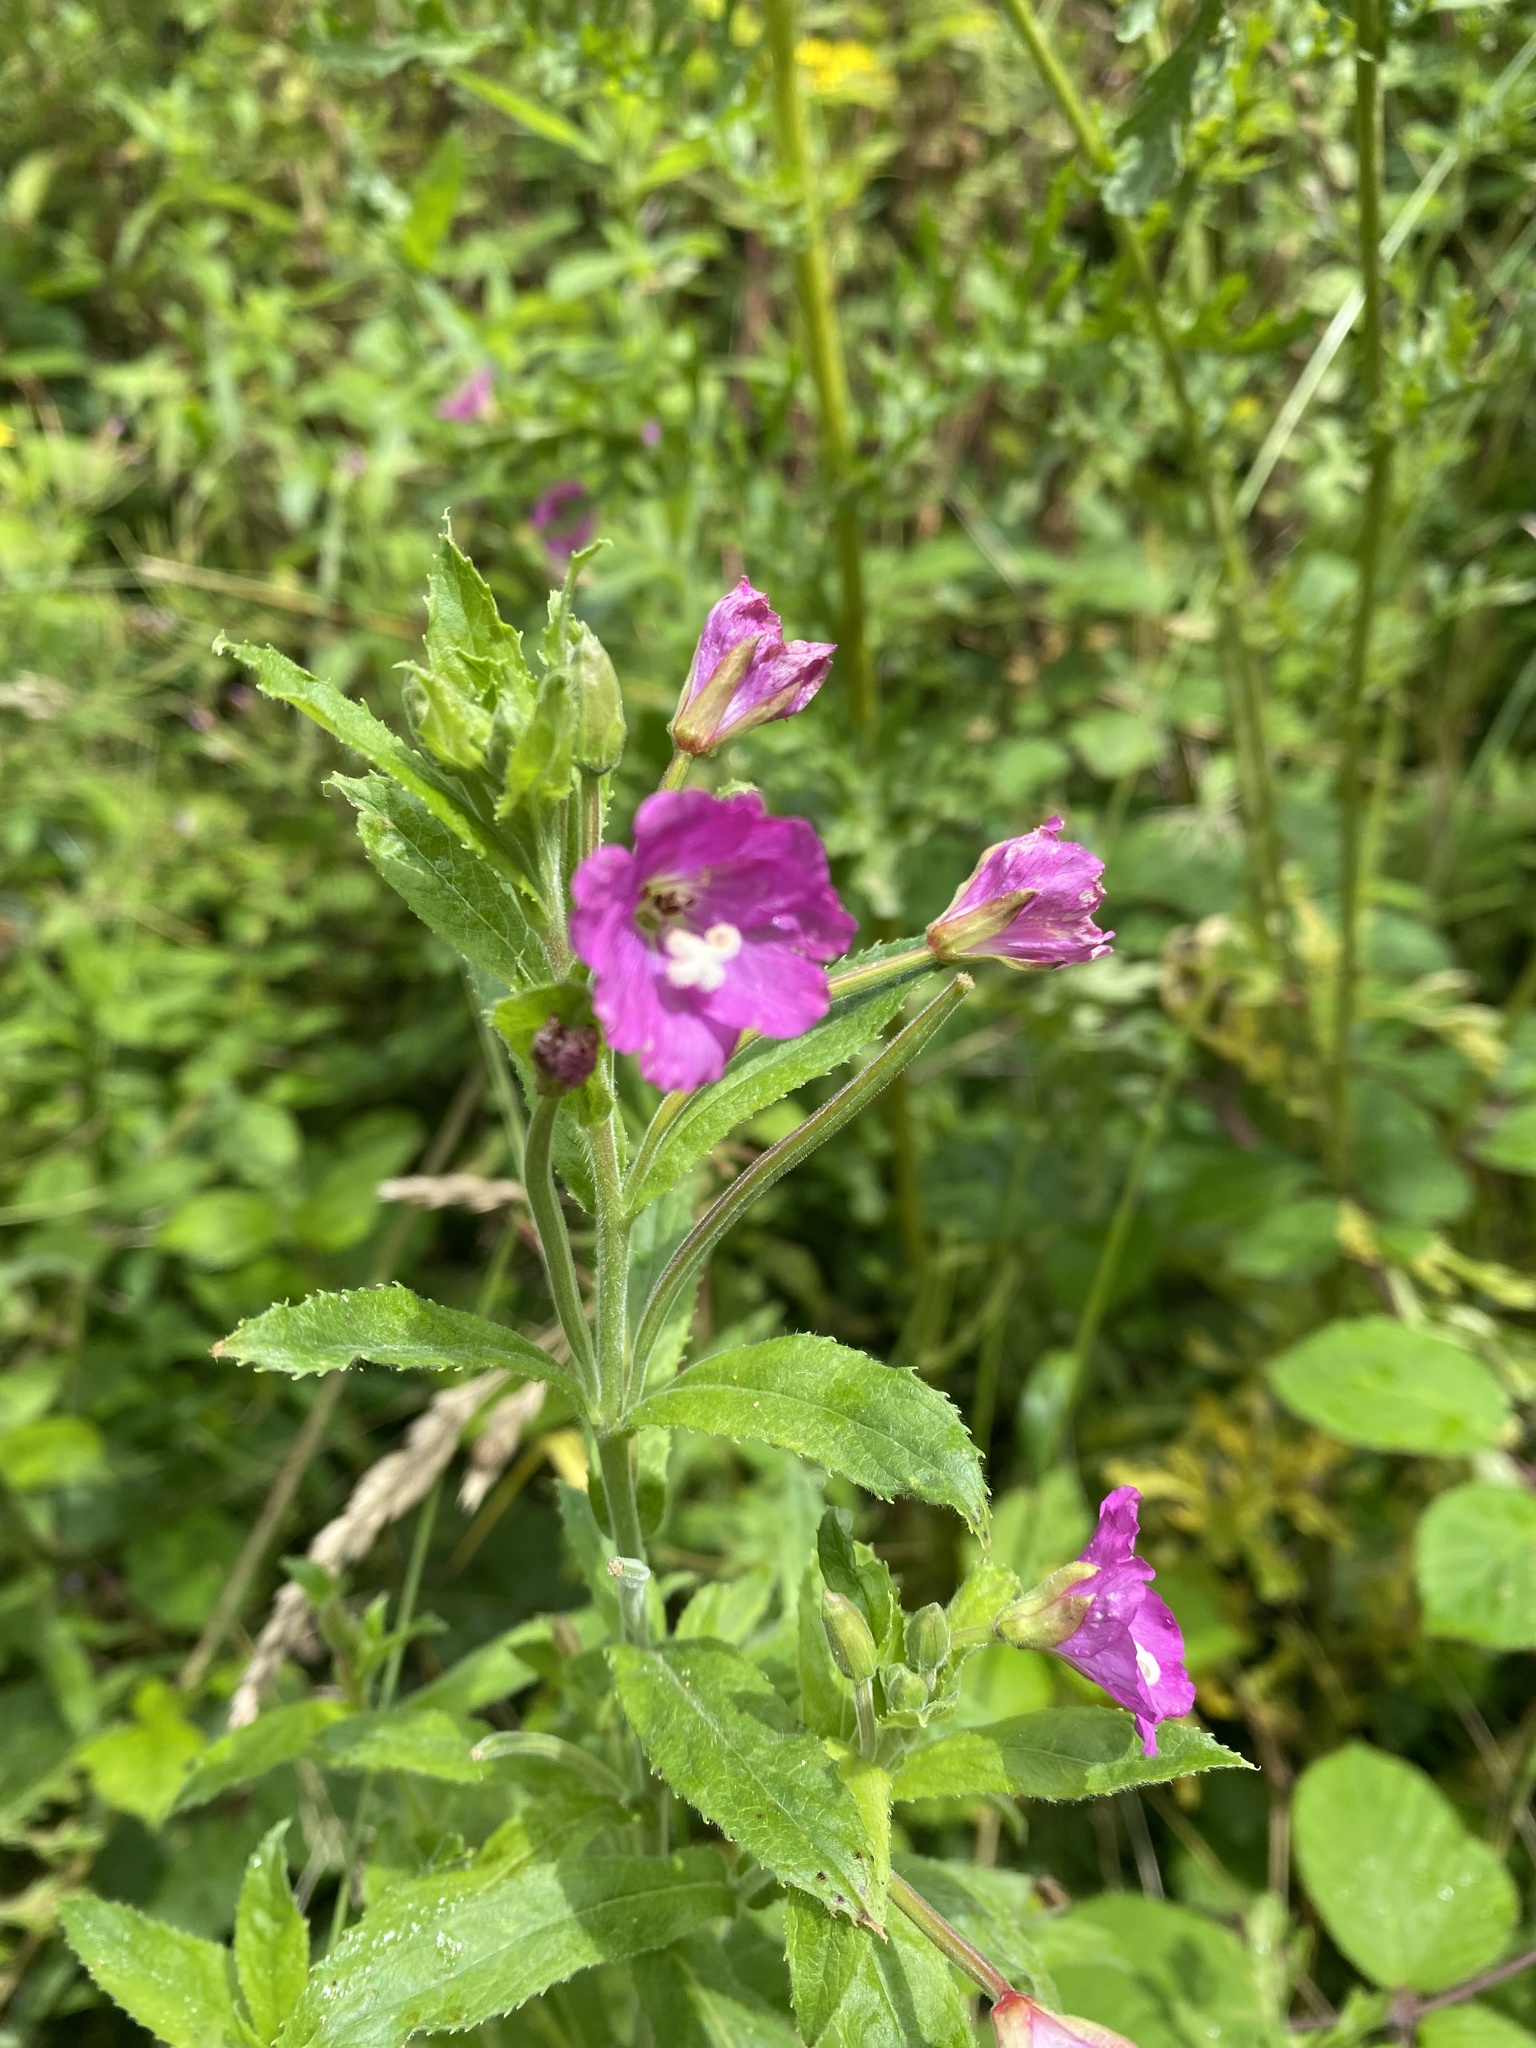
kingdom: Plantae
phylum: Tracheophyta
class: Magnoliopsida
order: Myrtales
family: Onagraceae
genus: Epilobium
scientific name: Epilobium hirsutum
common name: Great willowherb
